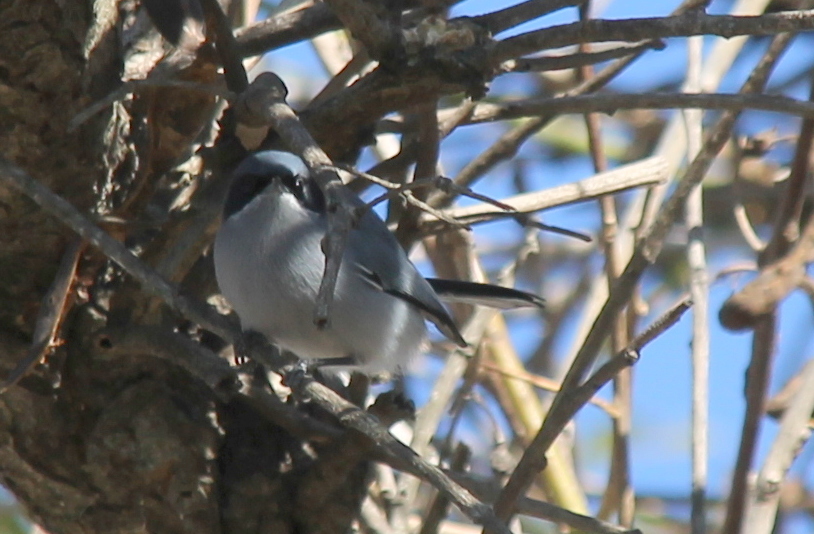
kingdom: Animalia
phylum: Chordata
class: Aves
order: Passeriformes
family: Polioptilidae
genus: Polioptila
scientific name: Polioptila dumicola
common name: Masked gnatcatcher
